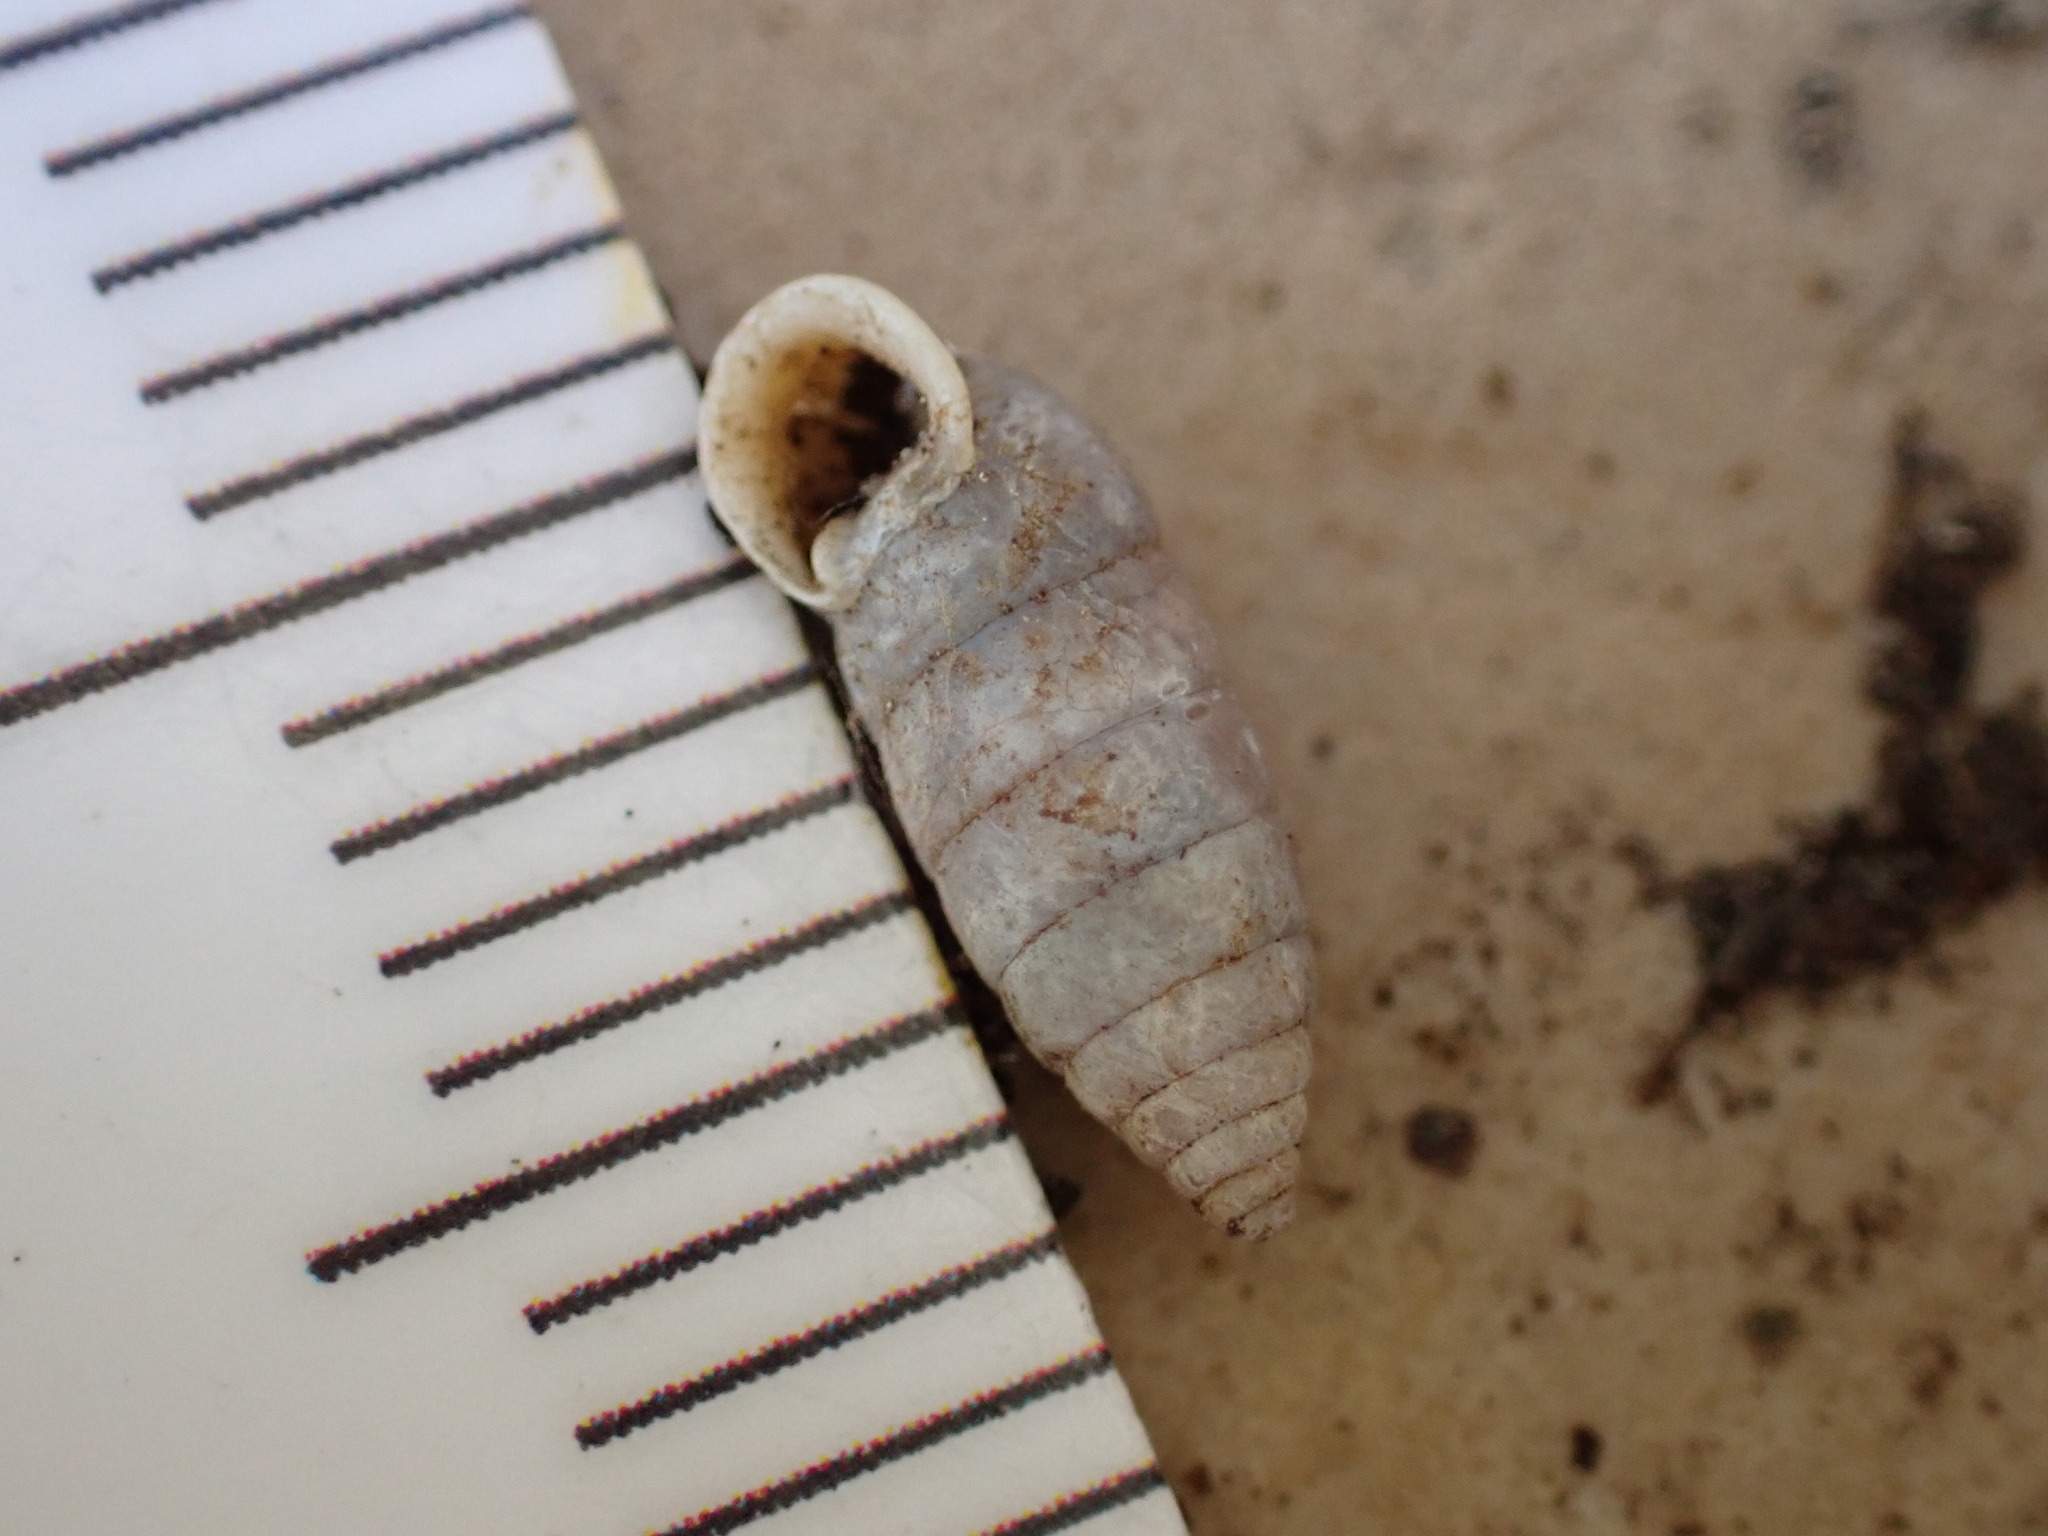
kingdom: Animalia
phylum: Mollusca
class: Gastropoda
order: Stylommatophora
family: Chondrinidae
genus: Granaria
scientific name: Granaria variabilis
